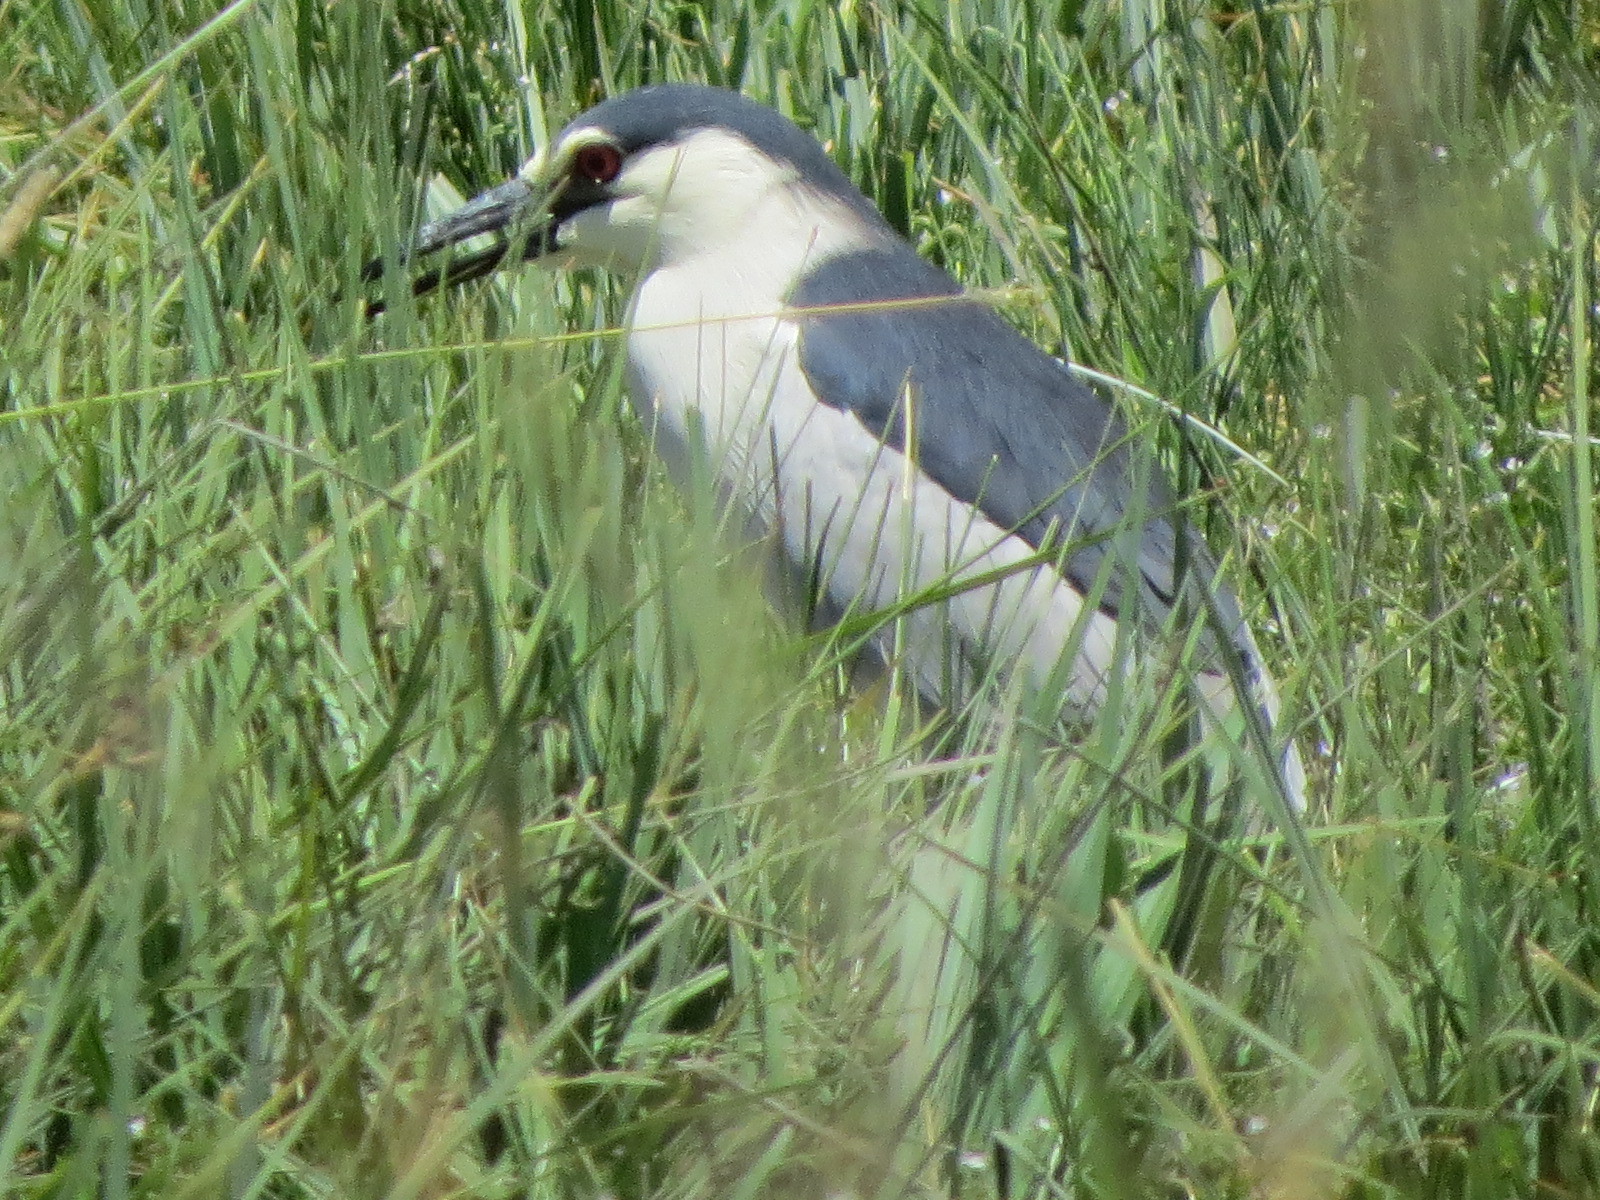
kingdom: Animalia
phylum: Chordata
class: Aves
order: Pelecaniformes
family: Ardeidae
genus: Nycticorax
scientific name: Nycticorax nycticorax
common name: Black-crowned night heron
